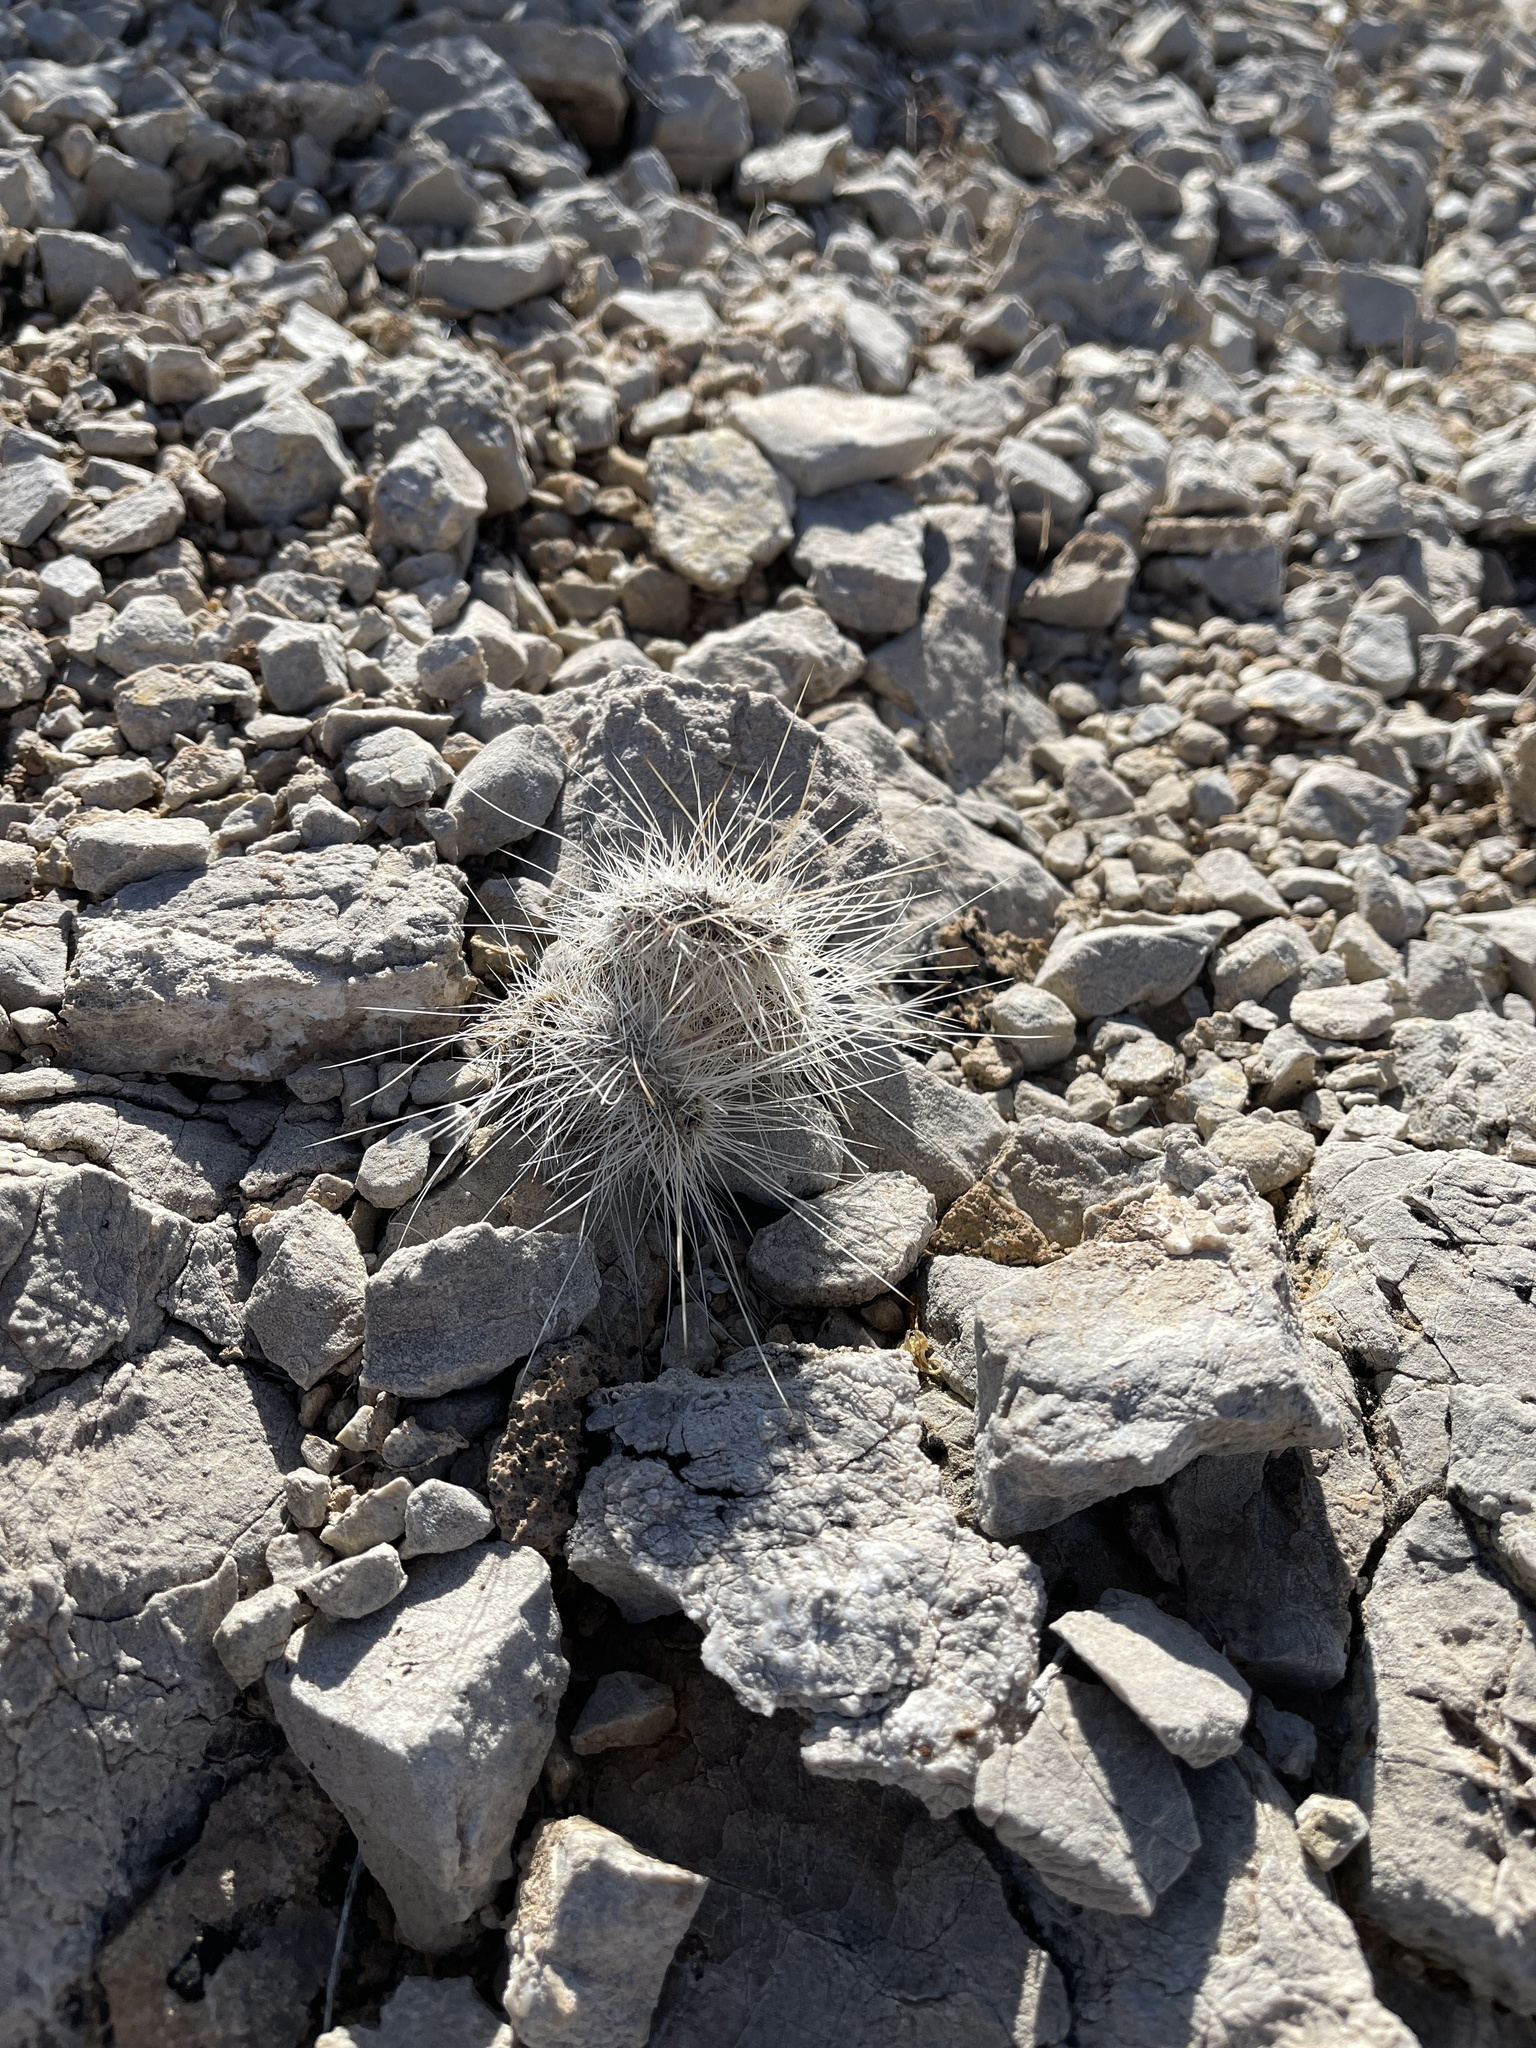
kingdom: Plantae
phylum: Tracheophyta
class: Magnoliopsida
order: Caryophyllales
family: Cactaceae
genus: Opuntia
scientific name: Opuntia polyacantha
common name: Plains prickly-pear
